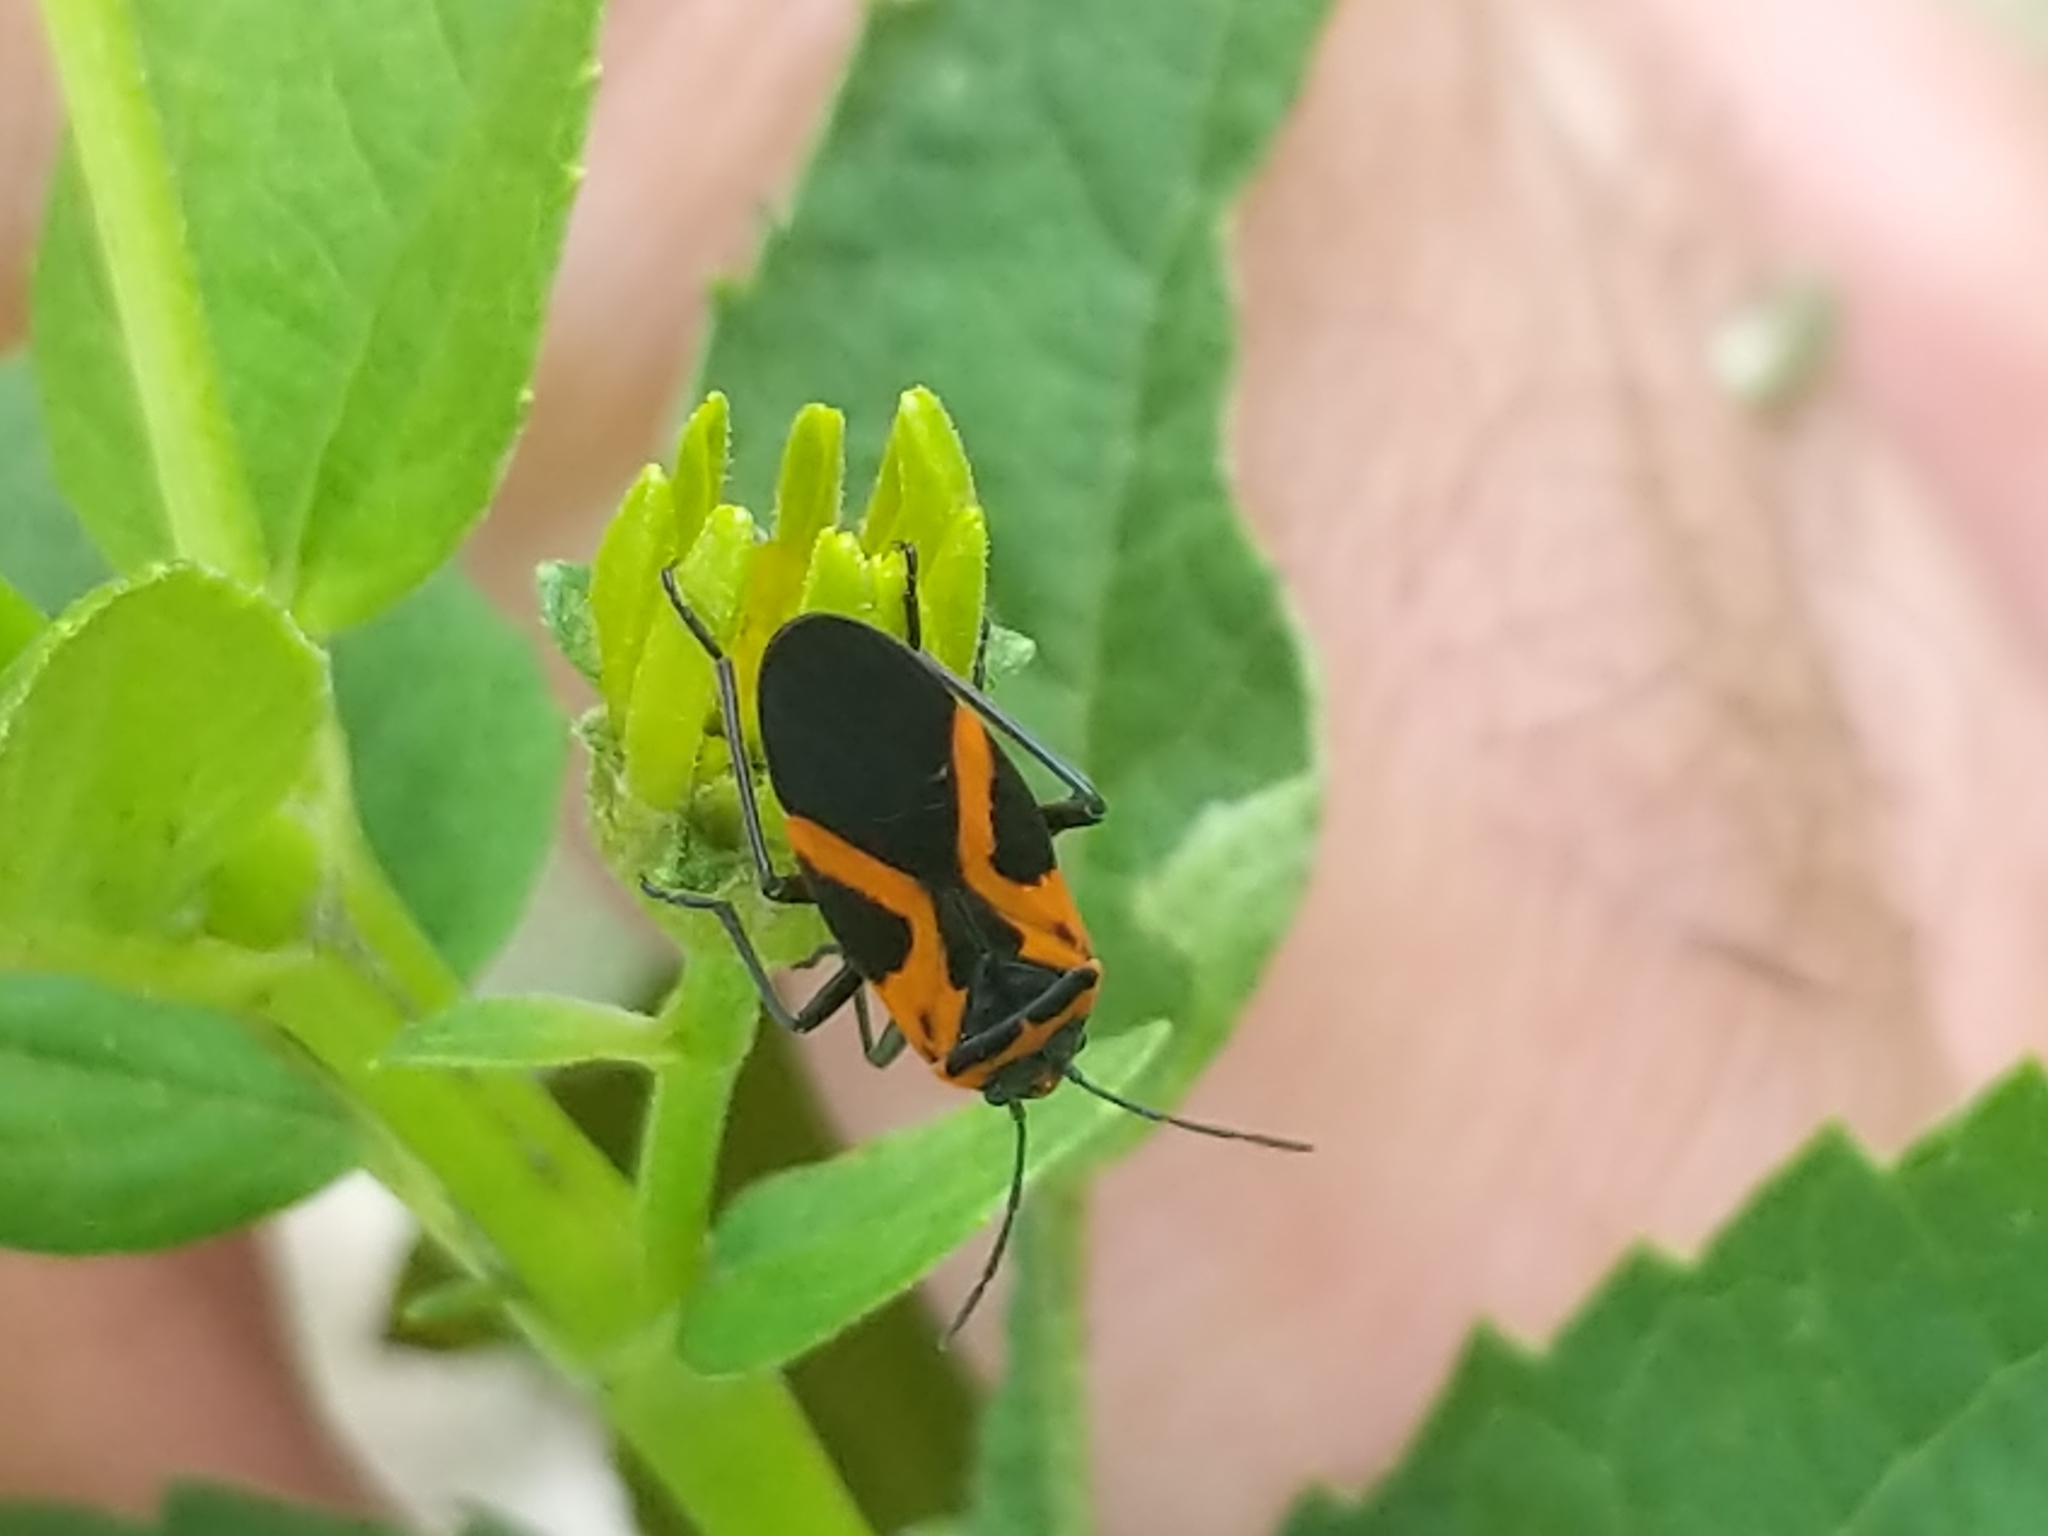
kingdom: Animalia
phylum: Arthropoda
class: Insecta
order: Hemiptera
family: Lygaeidae
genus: Lygaeus
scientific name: Lygaeus turcicus
